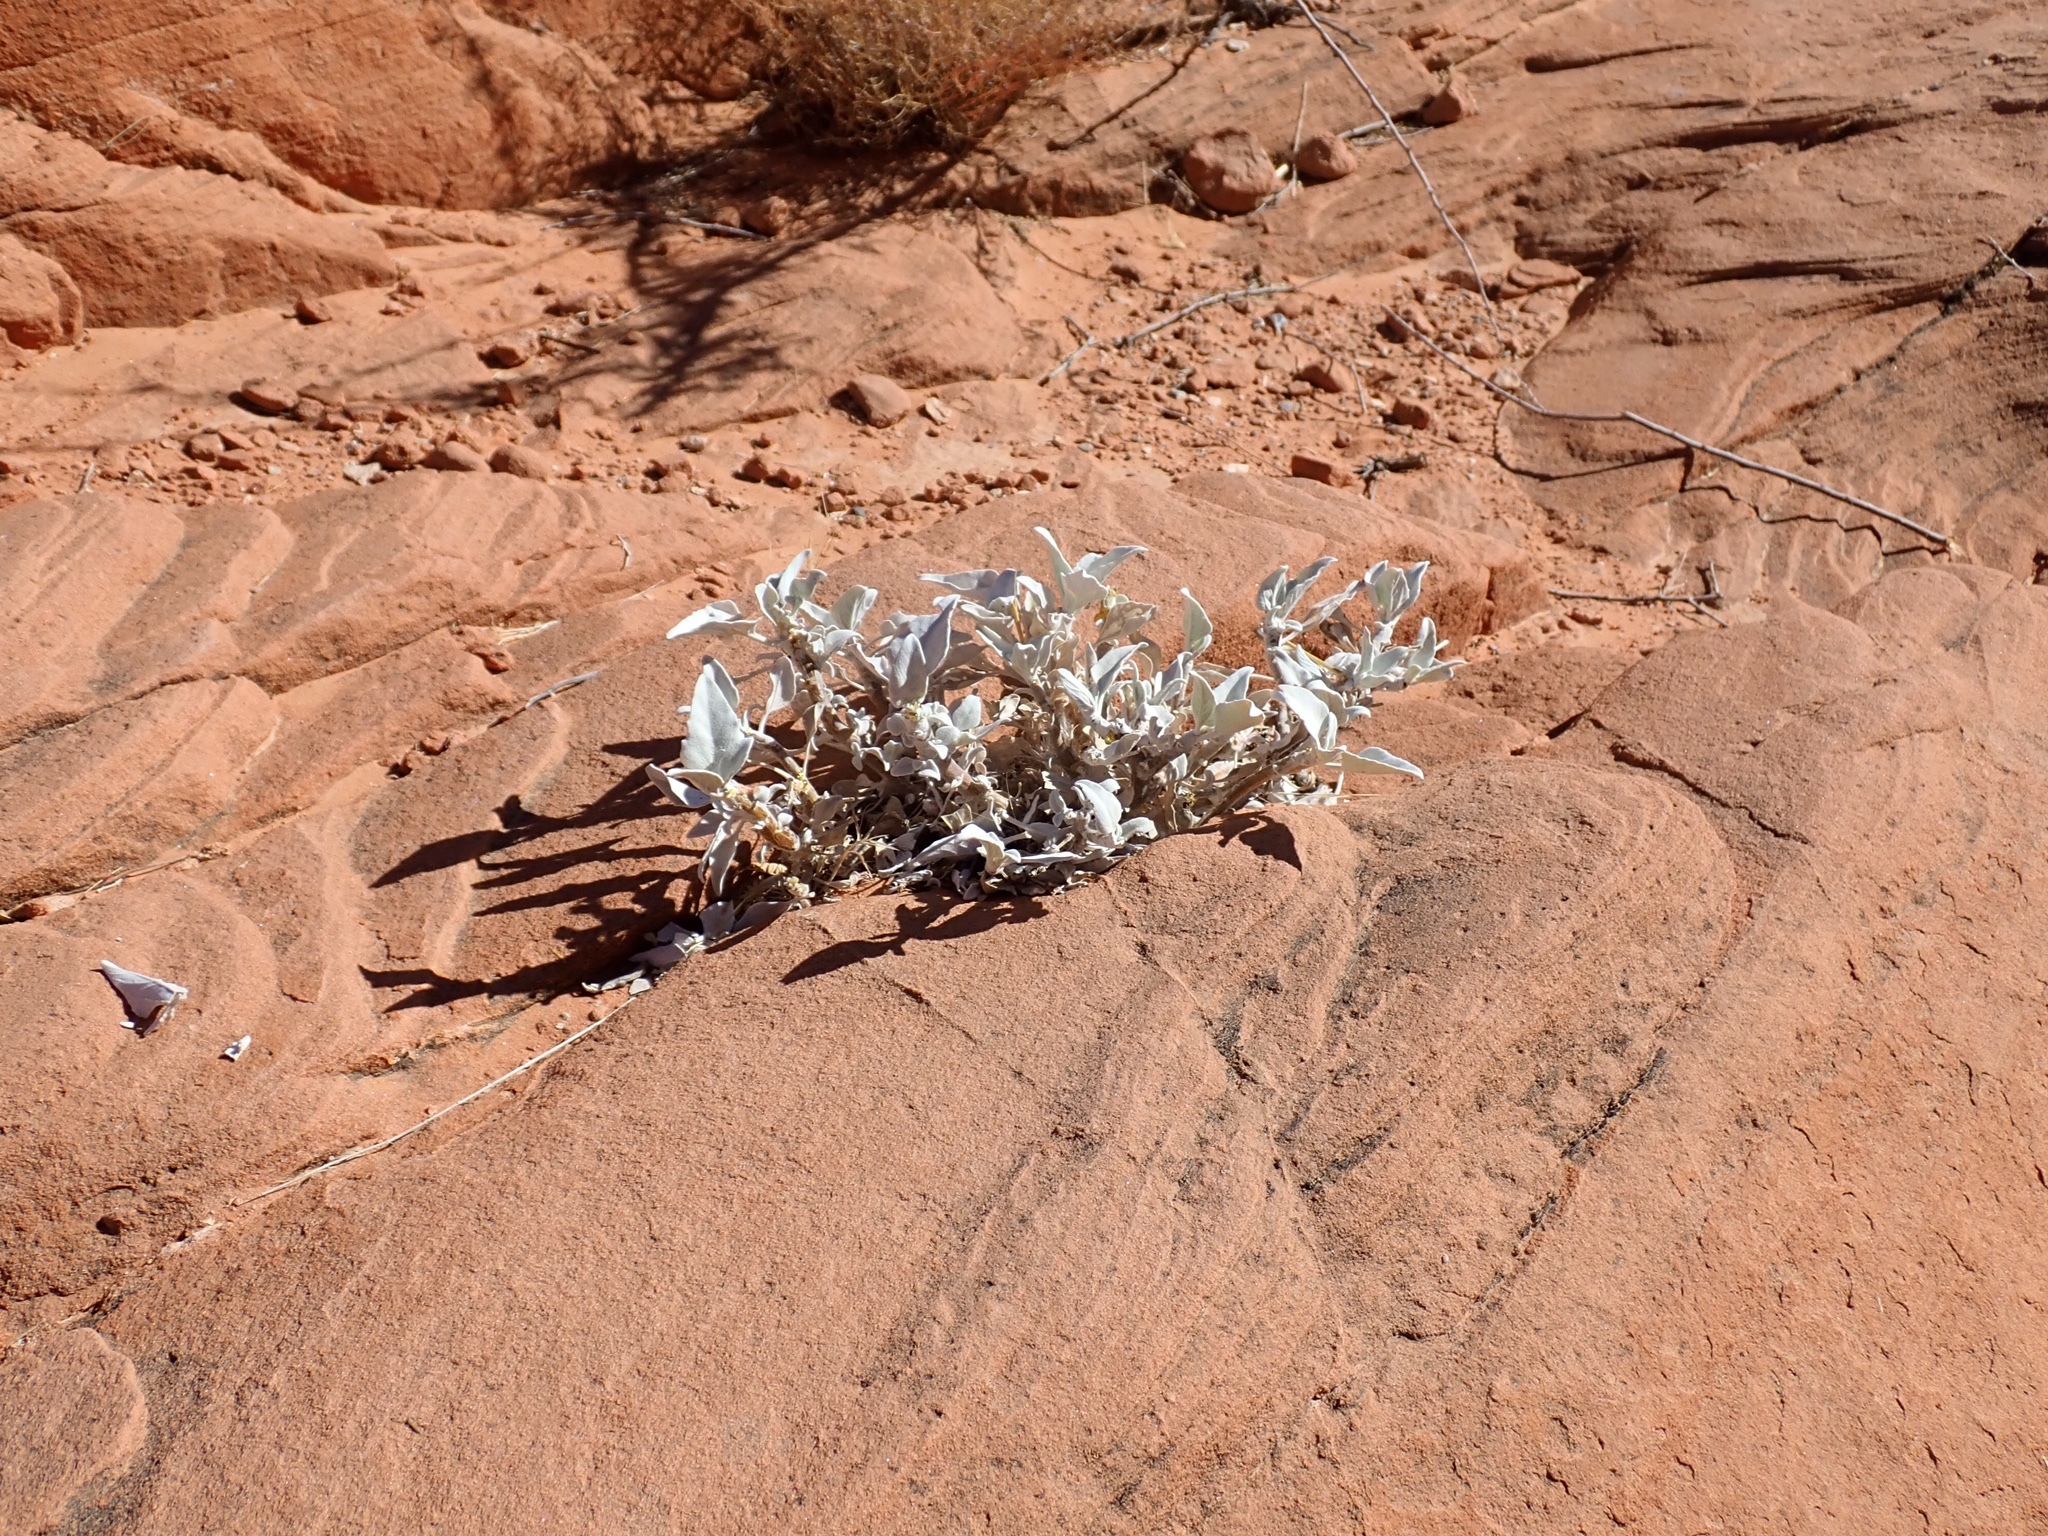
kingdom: Plantae
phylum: Tracheophyta
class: Magnoliopsida
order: Asterales
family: Asteraceae
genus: Encelia
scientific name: Encelia farinosa
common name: Brittlebush
